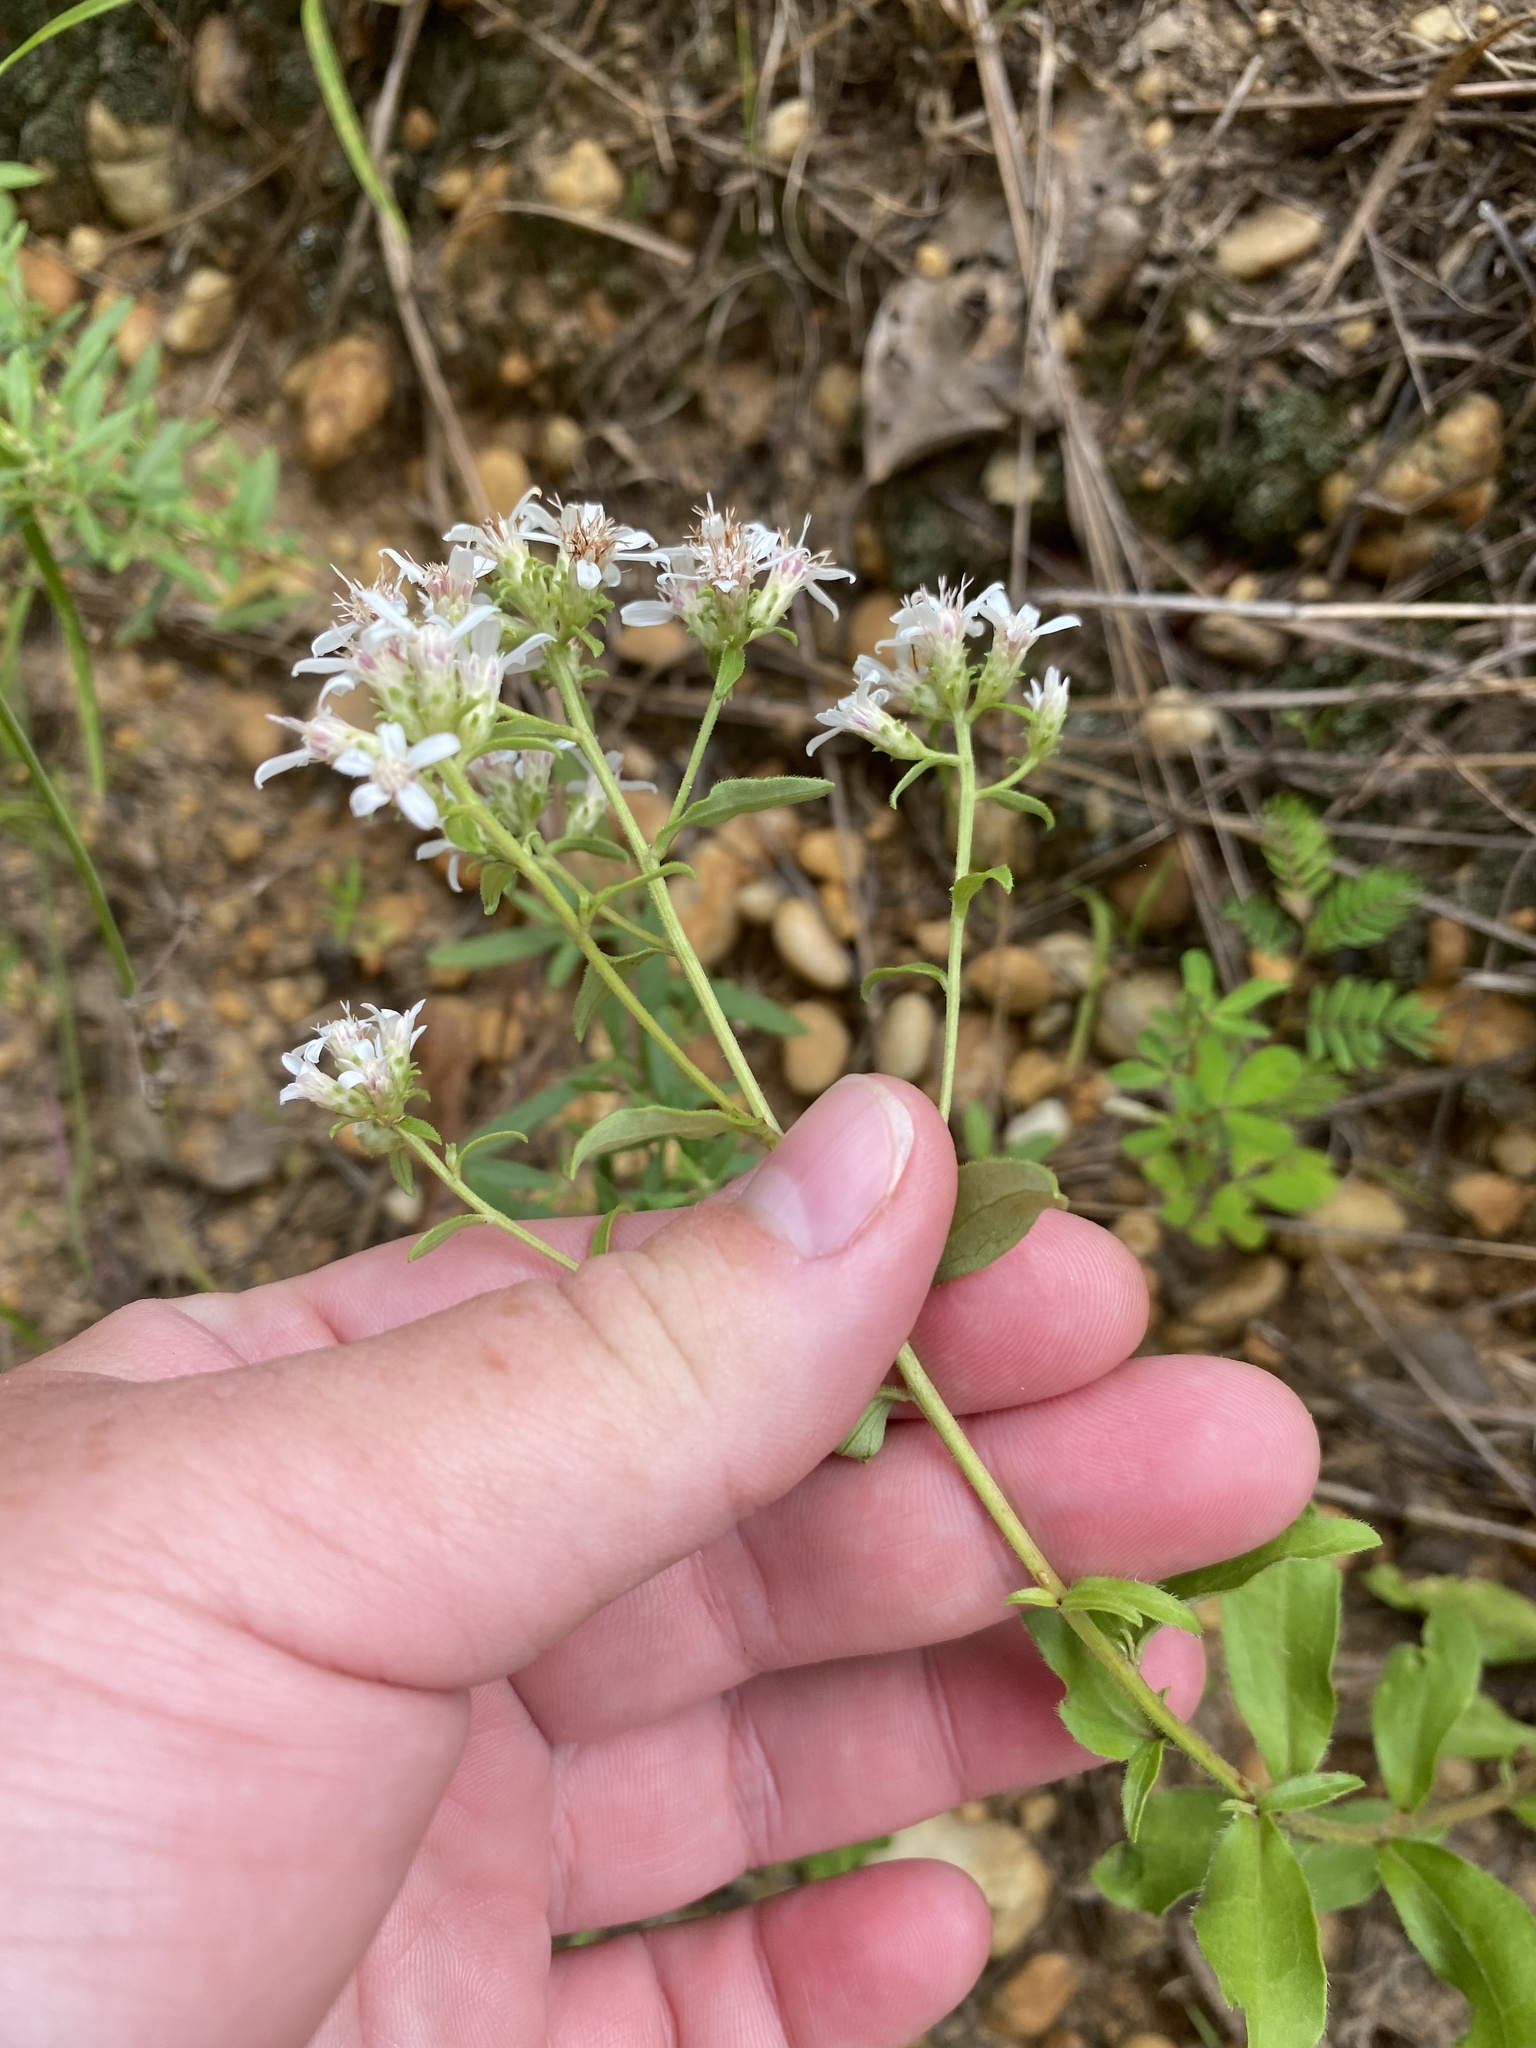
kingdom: Plantae
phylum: Tracheophyta
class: Magnoliopsida
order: Asterales
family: Asteraceae
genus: Sericocarpus
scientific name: Sericocarpus asteroides
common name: Toothed white-top aster
